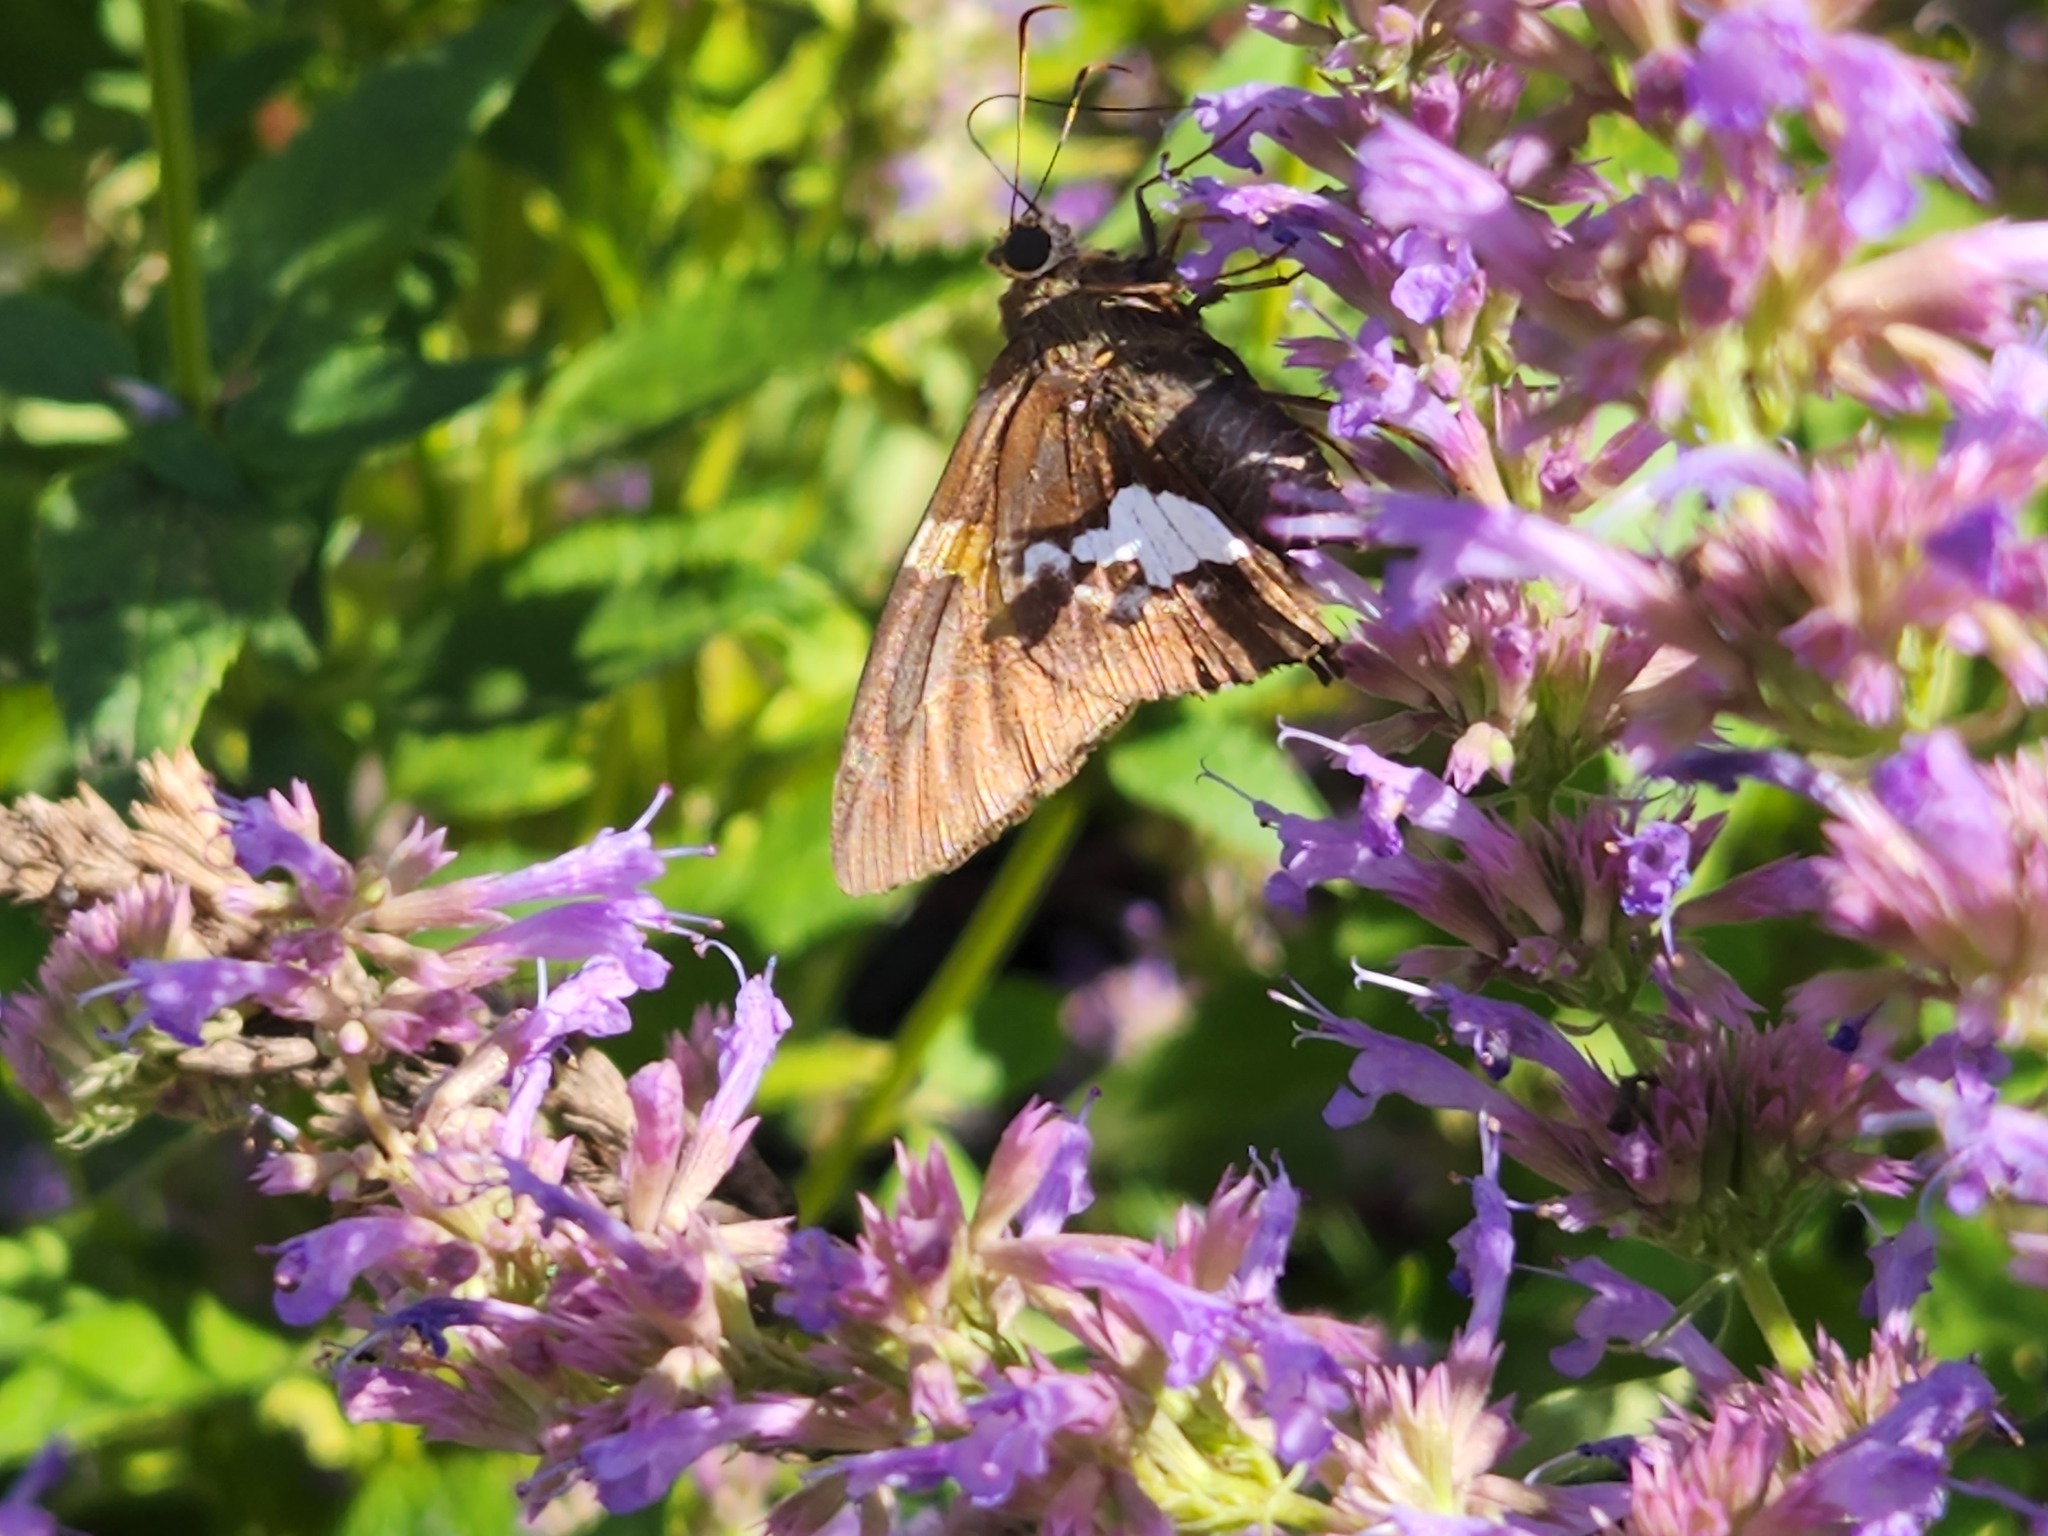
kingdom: Animalia
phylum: Arthropoda
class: Insecta
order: Lepidoptera
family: Hesperiidae
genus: Epargyreus
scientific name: Epargyreus clarus
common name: Silver-spotted skipper
